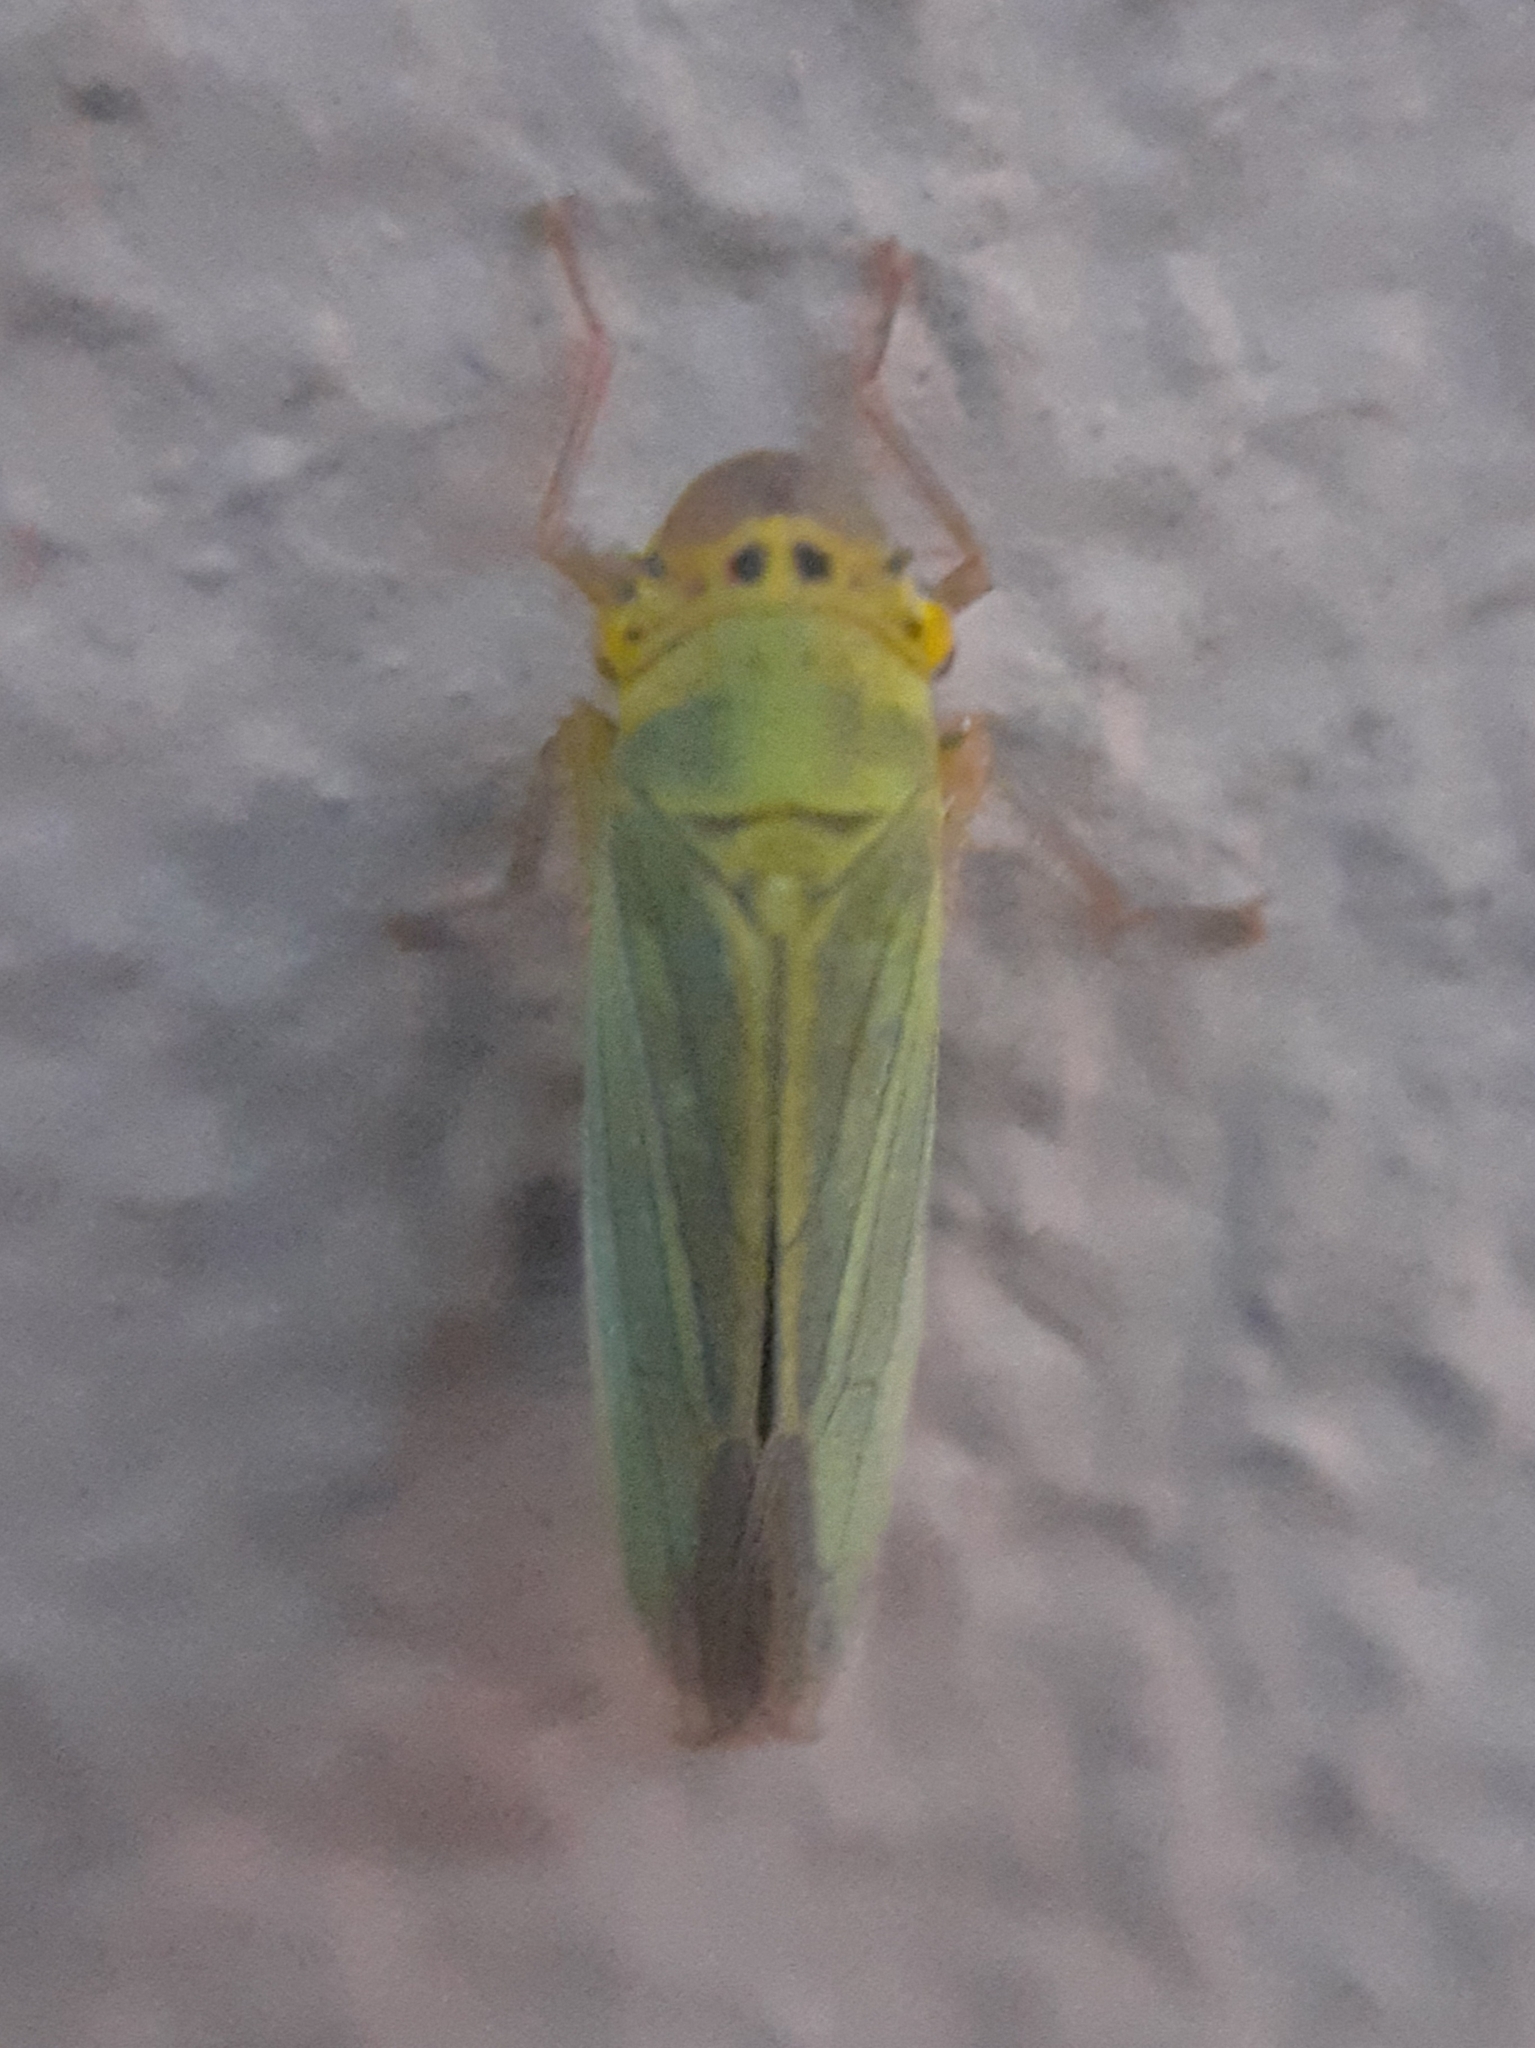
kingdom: Animalia
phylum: Arthropoda
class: Insecta
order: Hemiptera
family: Cicadellidae
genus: Cicadella
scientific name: Cicadella viridis
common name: Leafhopper
